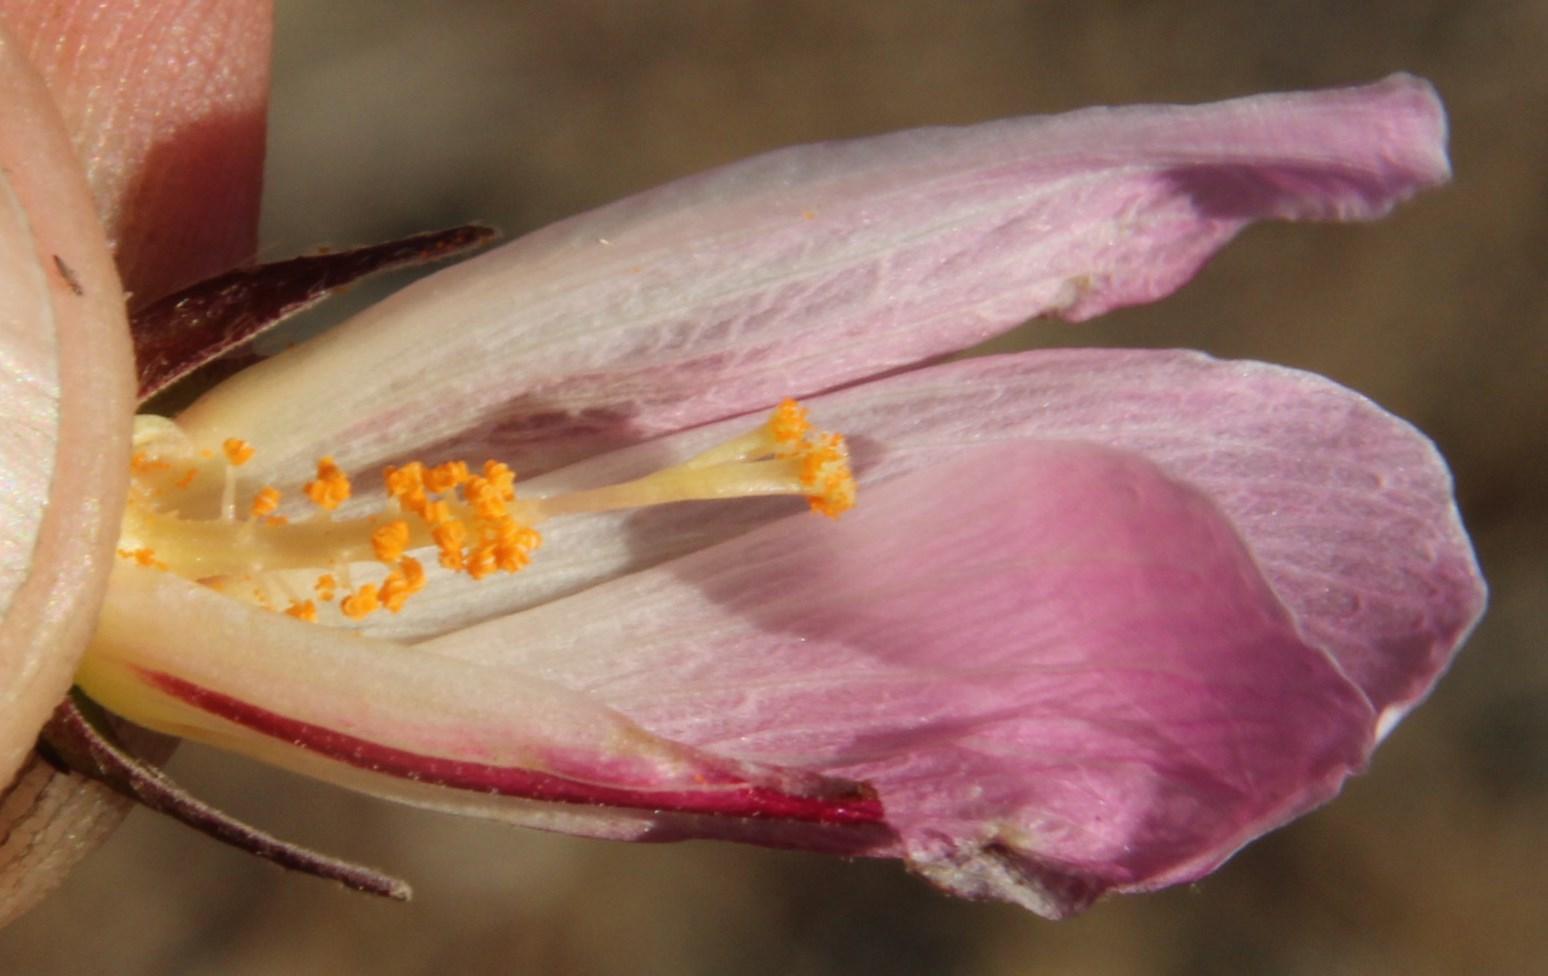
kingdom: Plantae
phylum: Tracheophyta
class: Magnoliopsida
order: Malvales
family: Malvaceae
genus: Hibiscus
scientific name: Hibiscus pusillus
